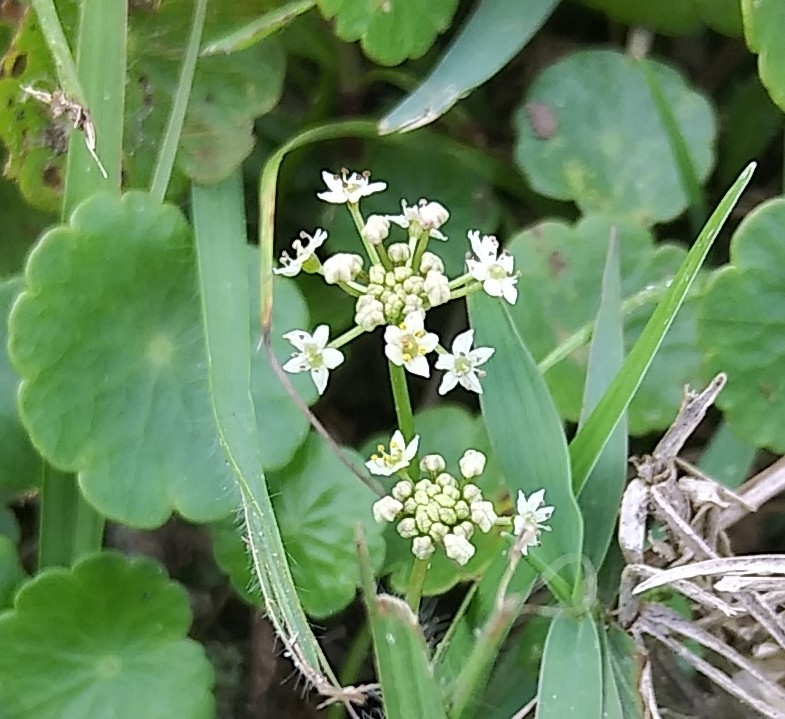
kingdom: Plantae
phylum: Tracheophyta
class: Magnoliopsida
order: Apiales
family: Araliaceae
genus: Hydrocotyle
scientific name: Hydrocotyle umbellata
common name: Water pennywort
